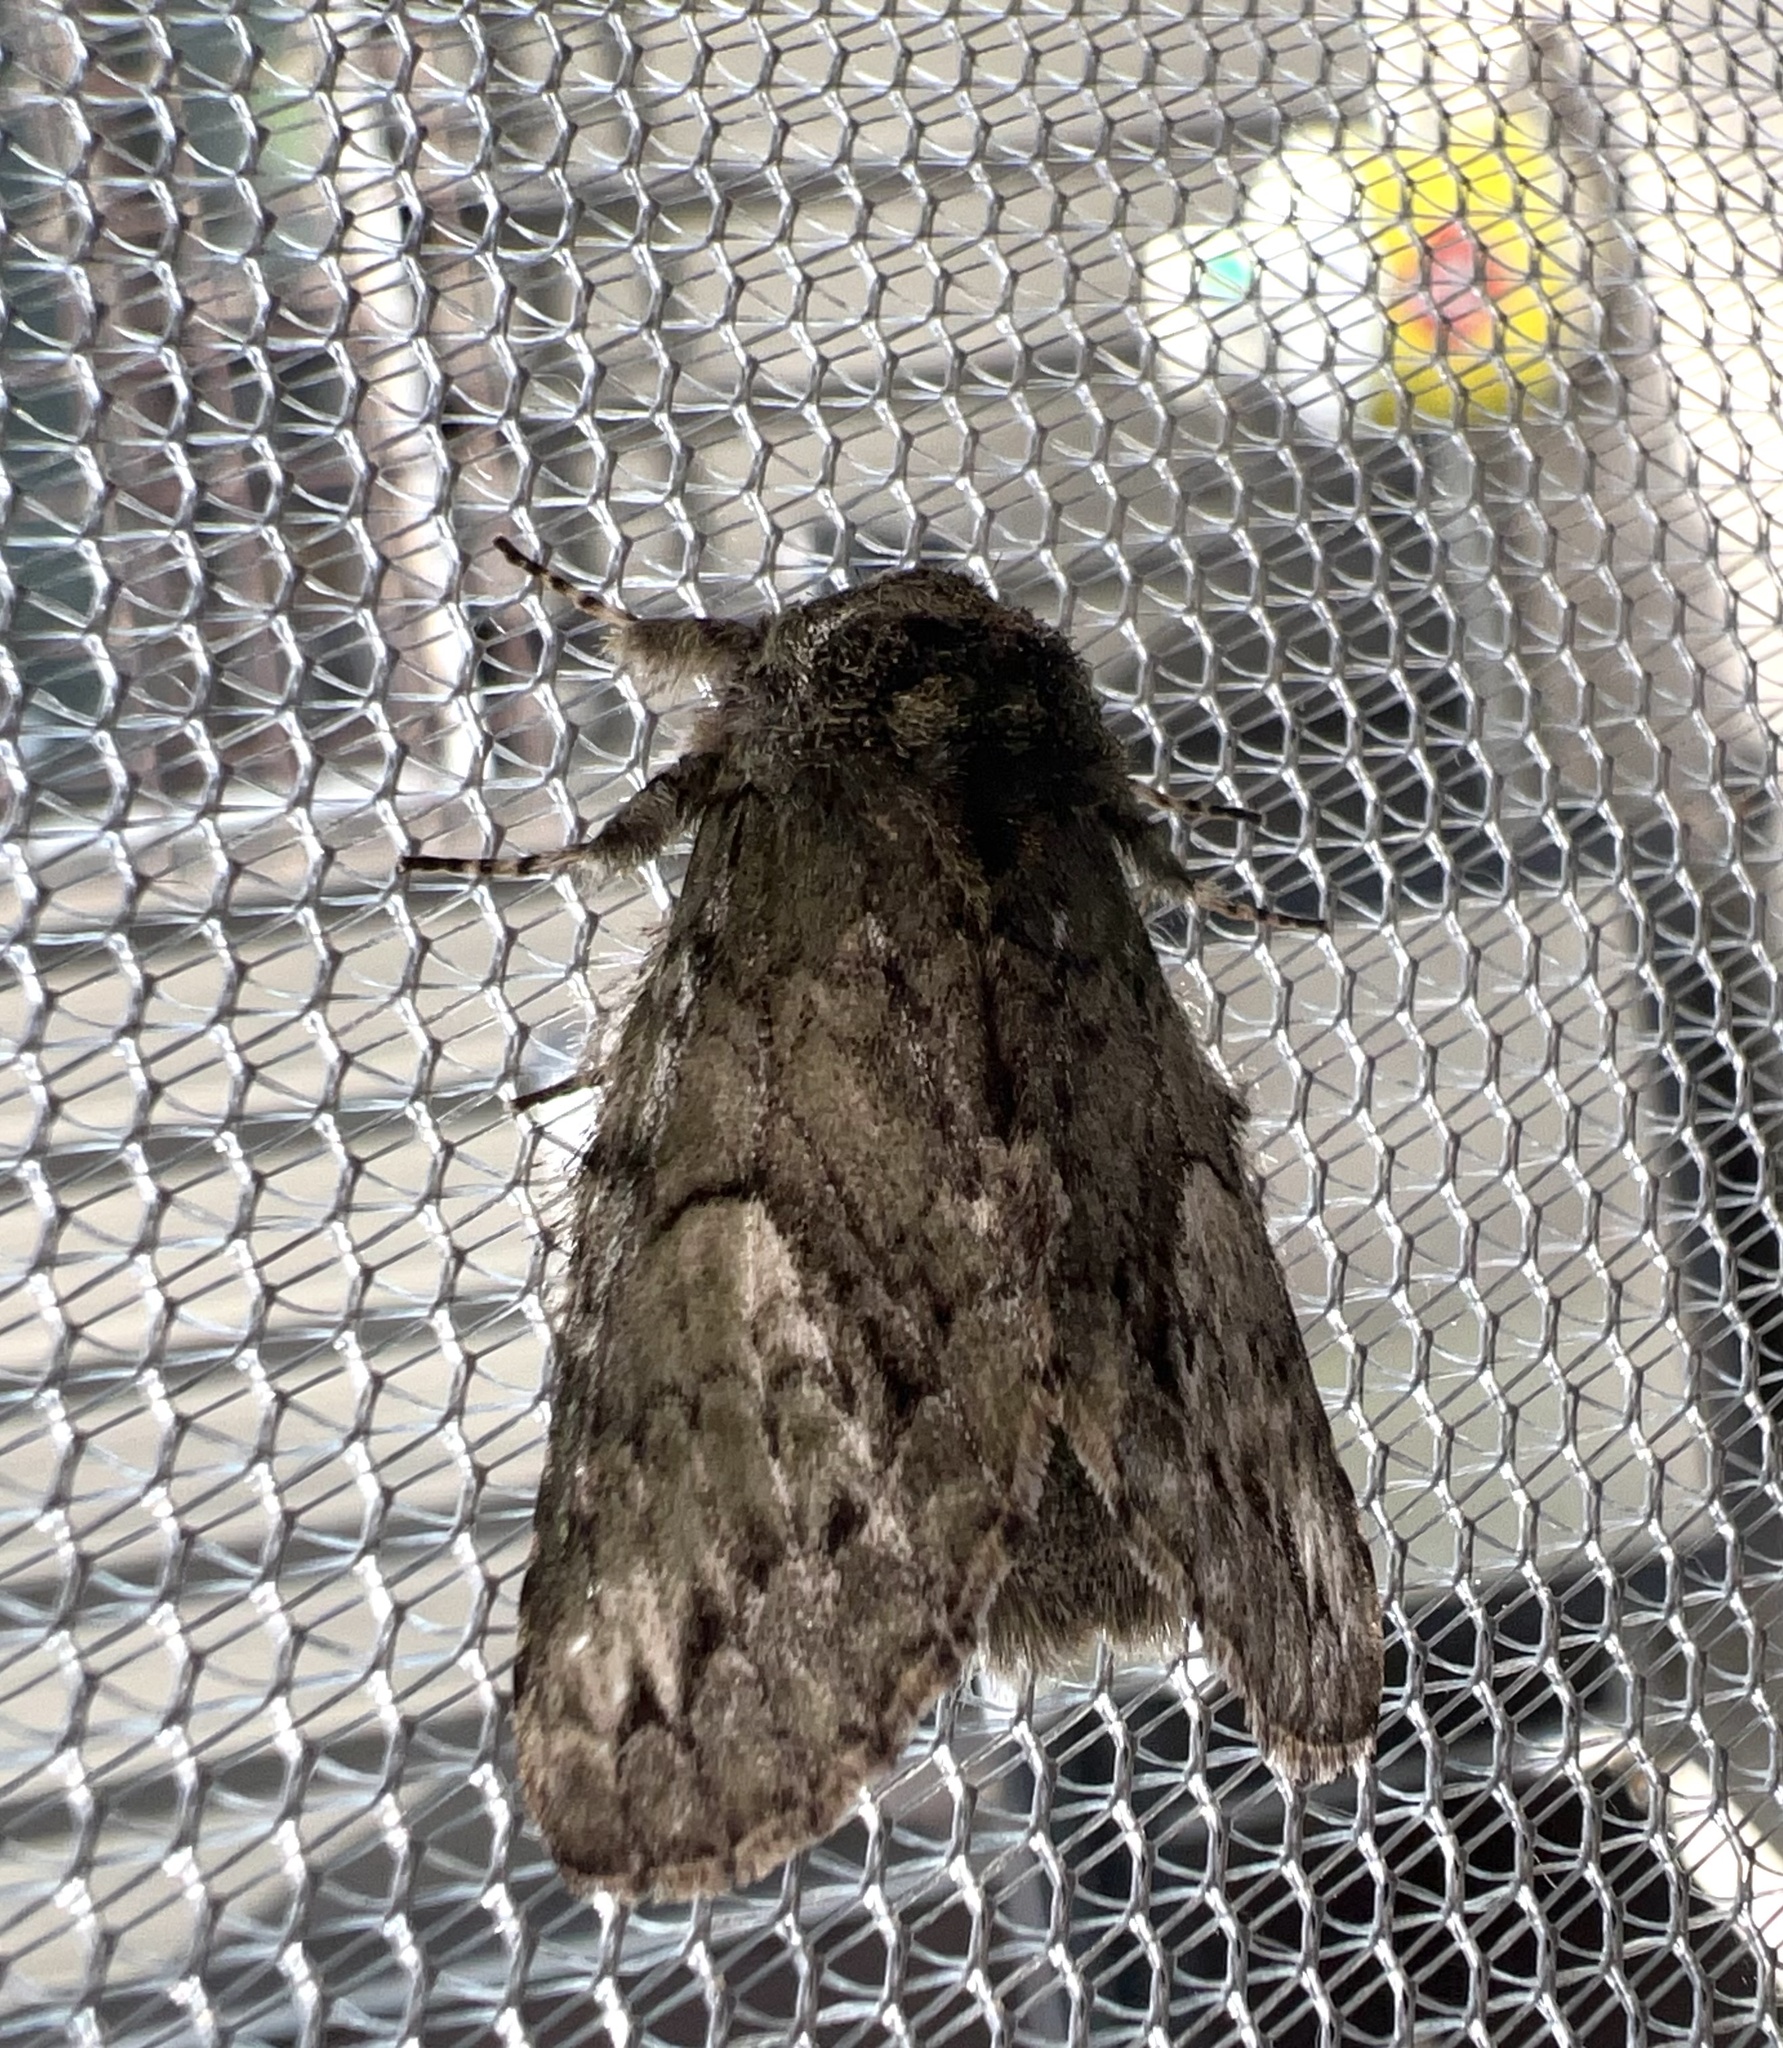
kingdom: Animalia
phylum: Arthropoda
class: Insecta
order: Lepidoptera
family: Notodontidae
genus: Heterocampa
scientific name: Heterocampa
